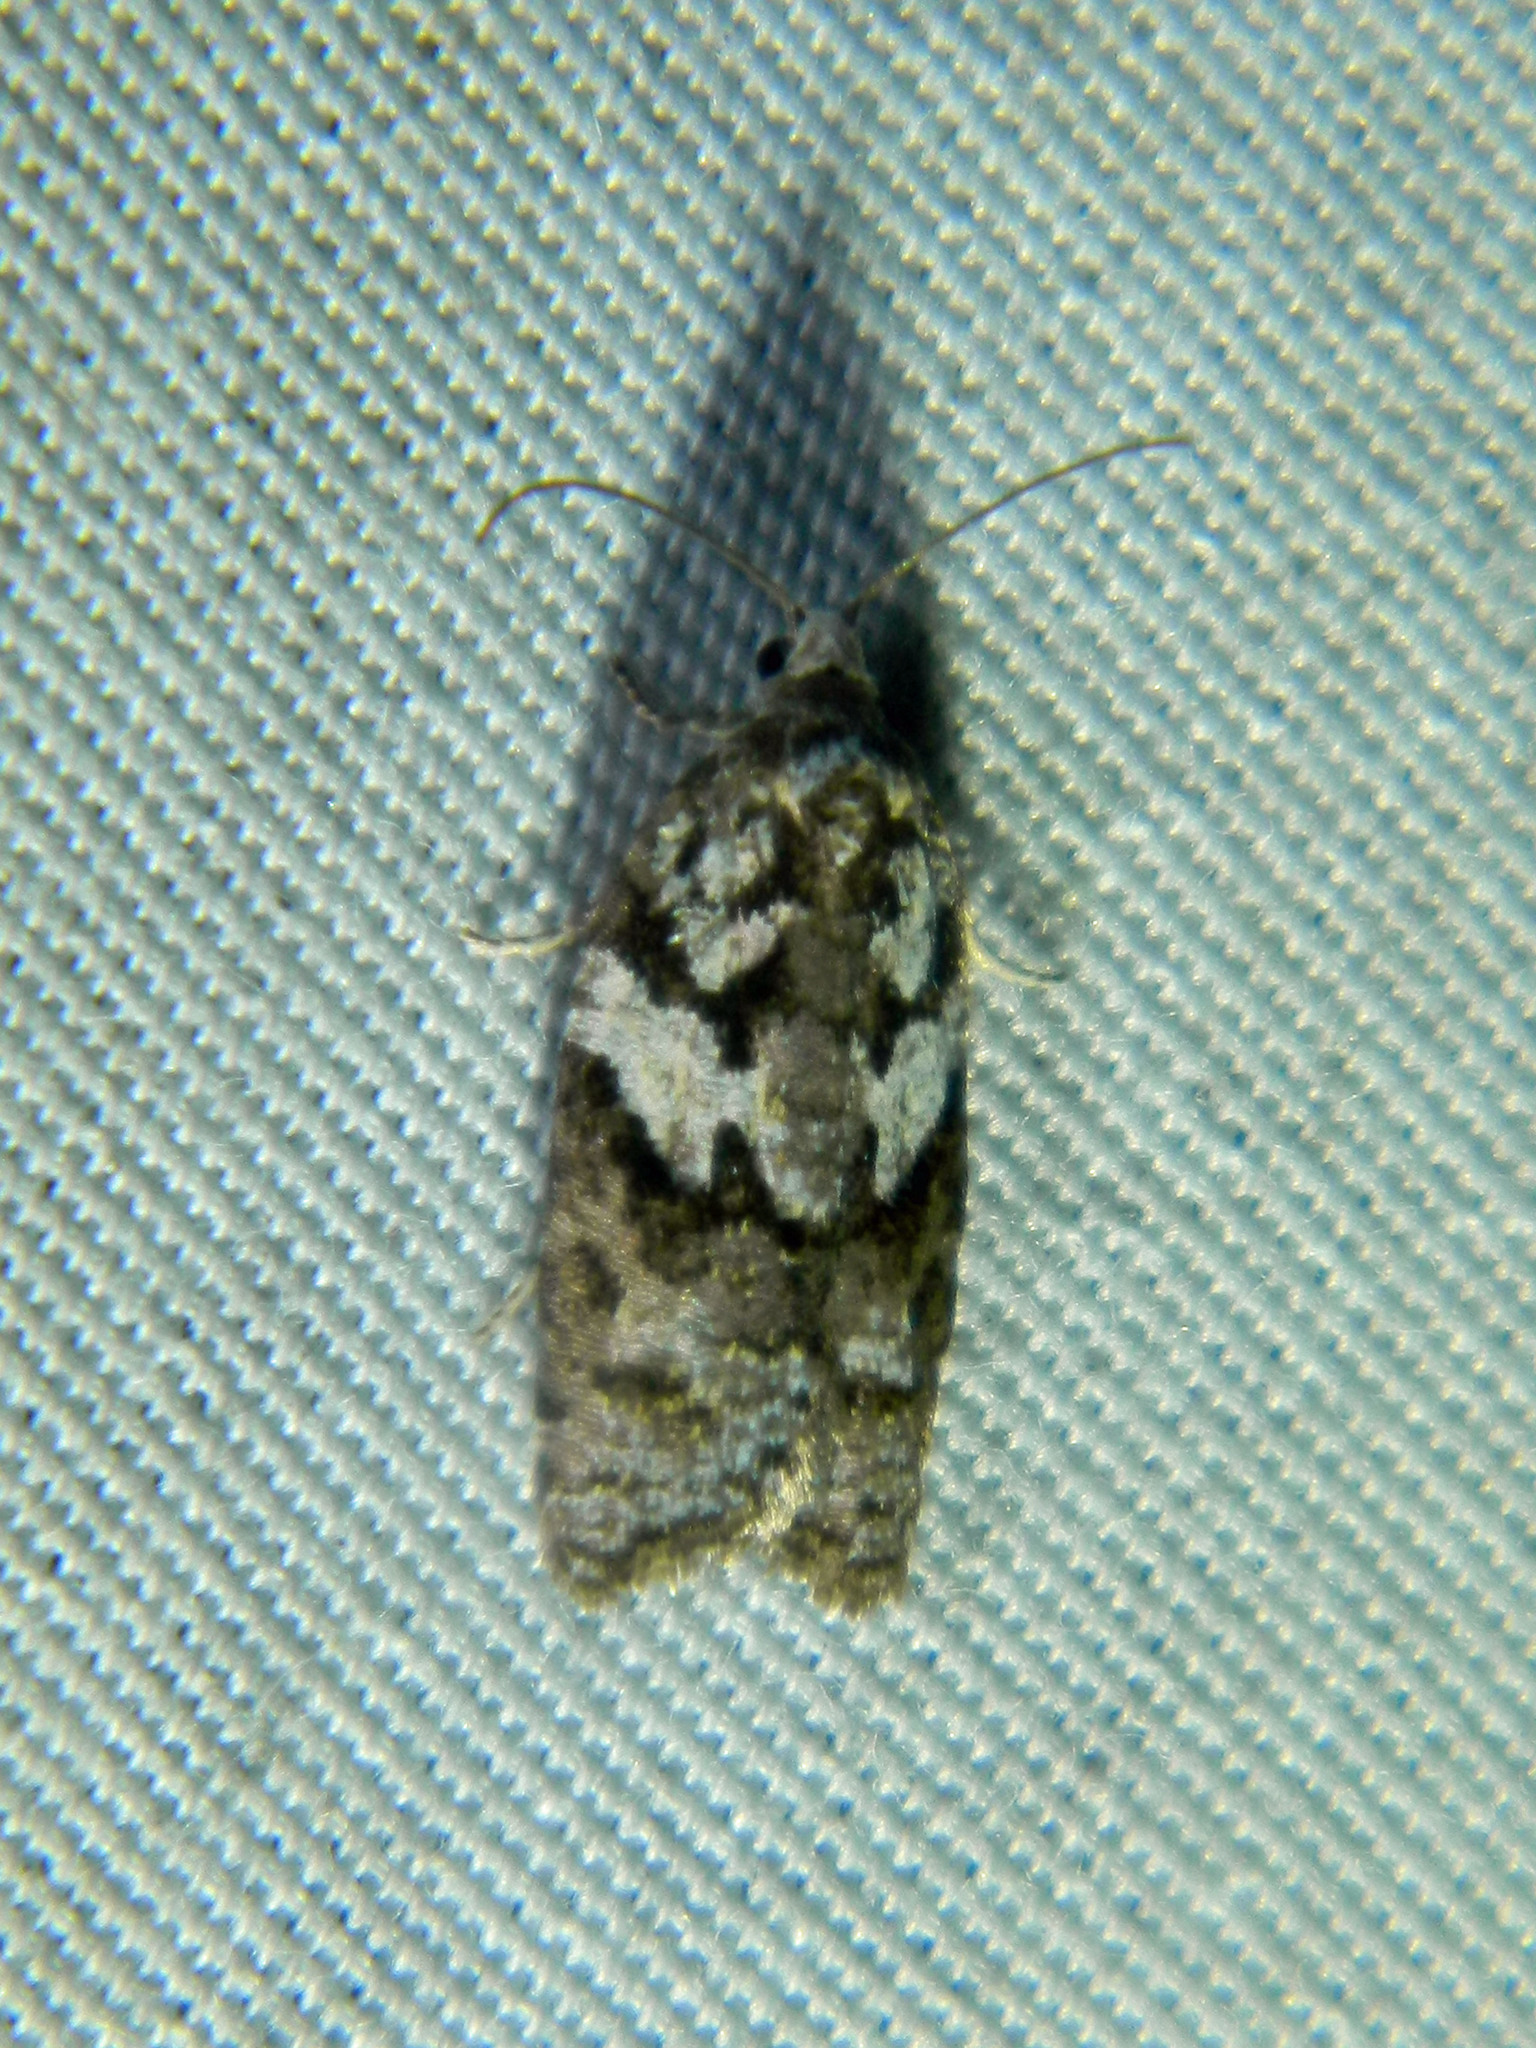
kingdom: Animalia
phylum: Arthropoda
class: Insecta
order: Lepidoptera
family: Tortricidae
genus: Acleris
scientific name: Acleris variana
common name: Eastern black-headed budworm moth
